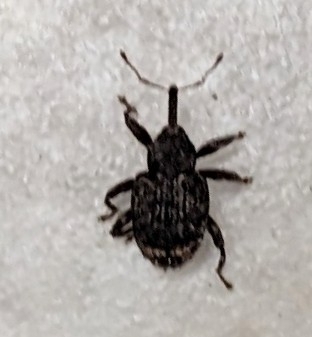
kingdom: Animalia
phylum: Arthropoda
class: Insecta
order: Coleoptera
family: Curculionidae
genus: Conotrachelus
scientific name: Conotrachelus posticatus
